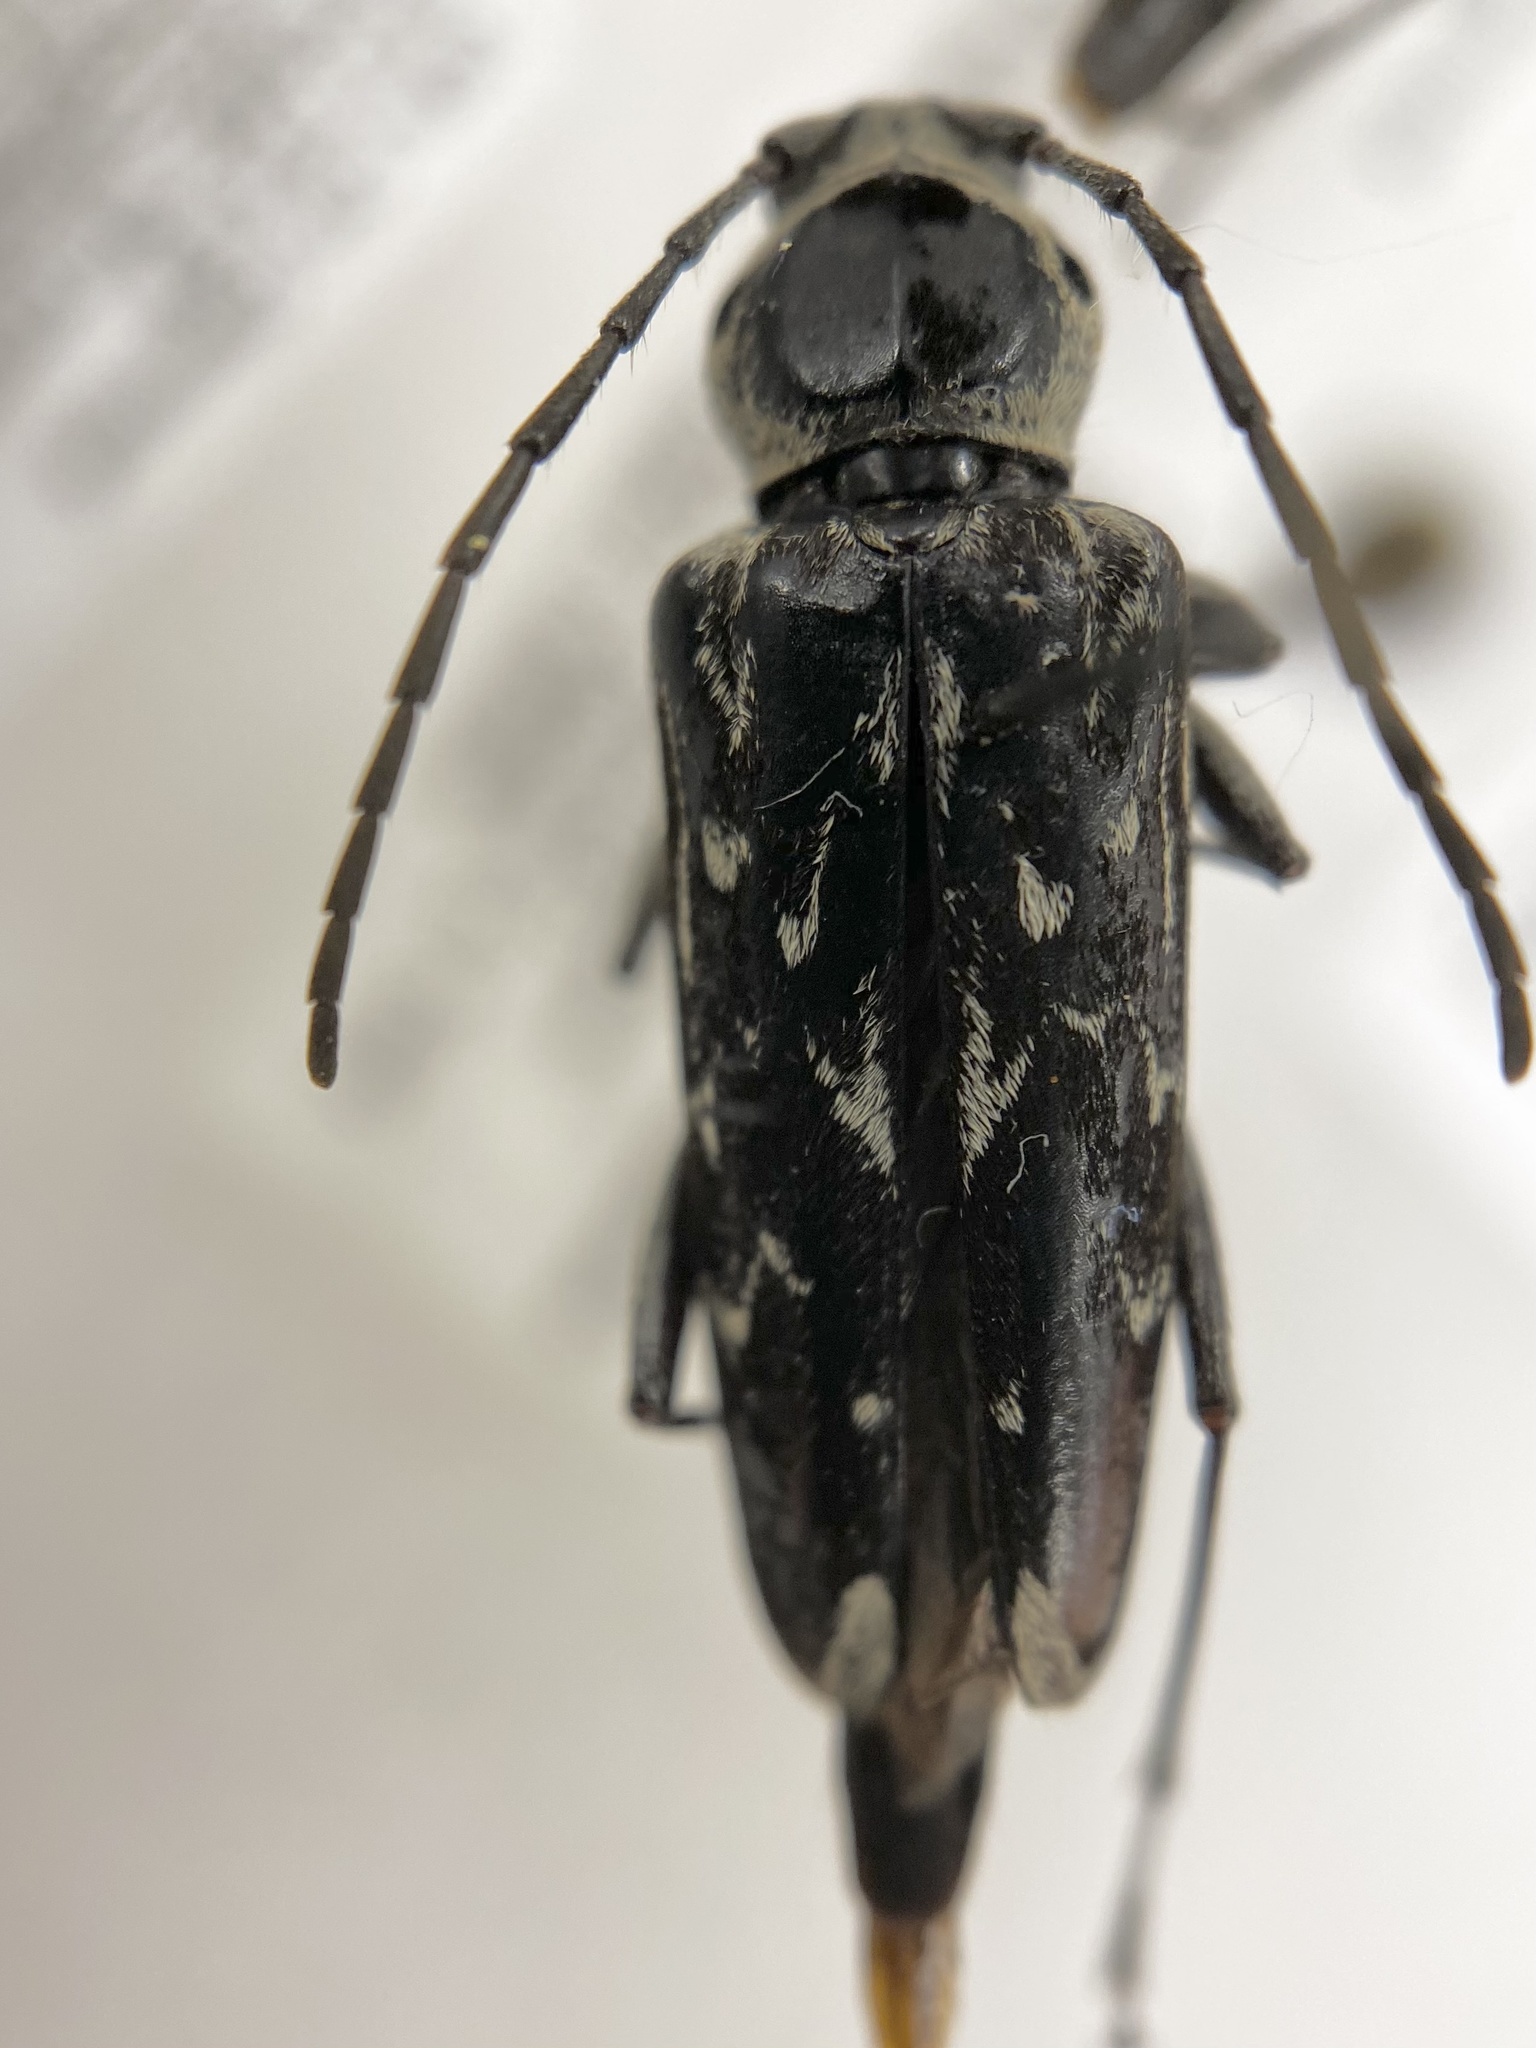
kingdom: Animalia
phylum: Arthropoda
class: Insecta
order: Coleoptera
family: Cerambycidae
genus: Sarosesthes
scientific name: Sarosesthes fulminans
